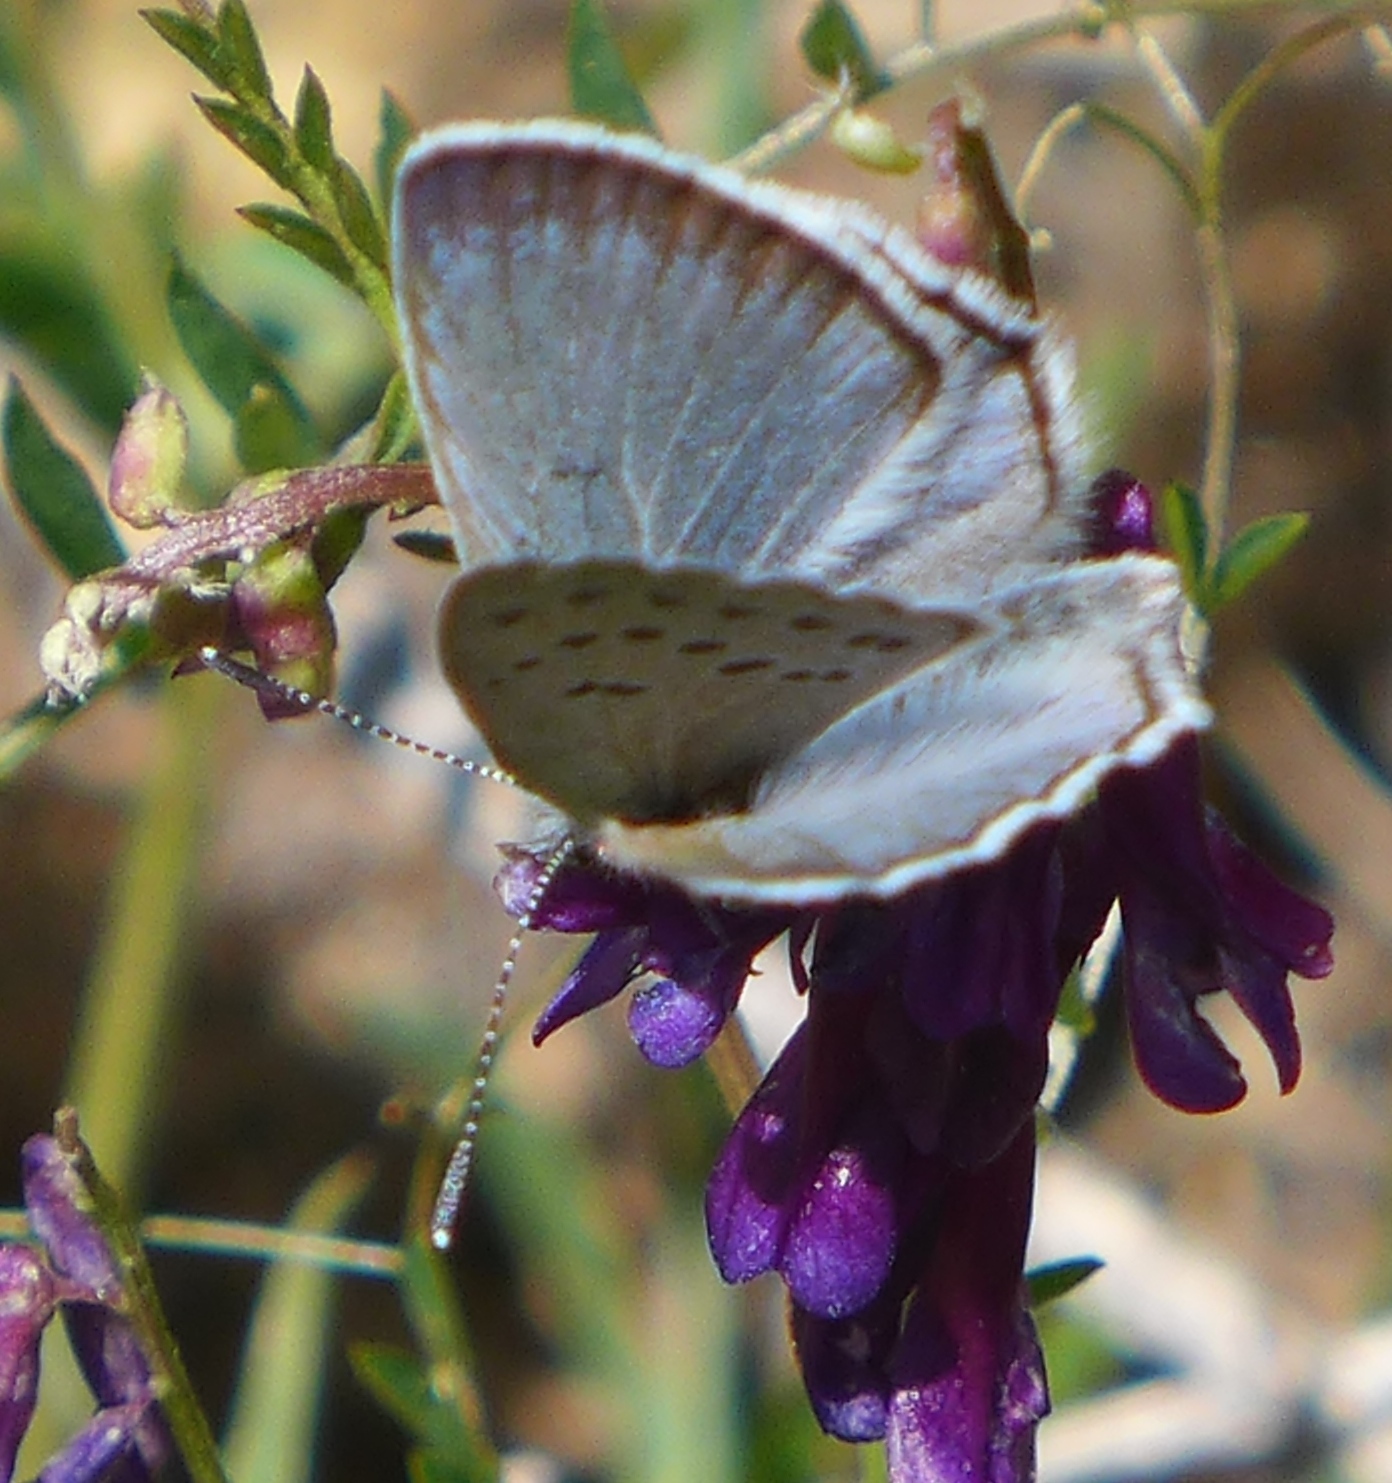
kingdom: Animalia
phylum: Arthropoda
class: Insecta
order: Lepidoptera
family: Lycaenidae
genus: Icaricia
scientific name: Icaricia icarioides
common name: Boisduval's blue
